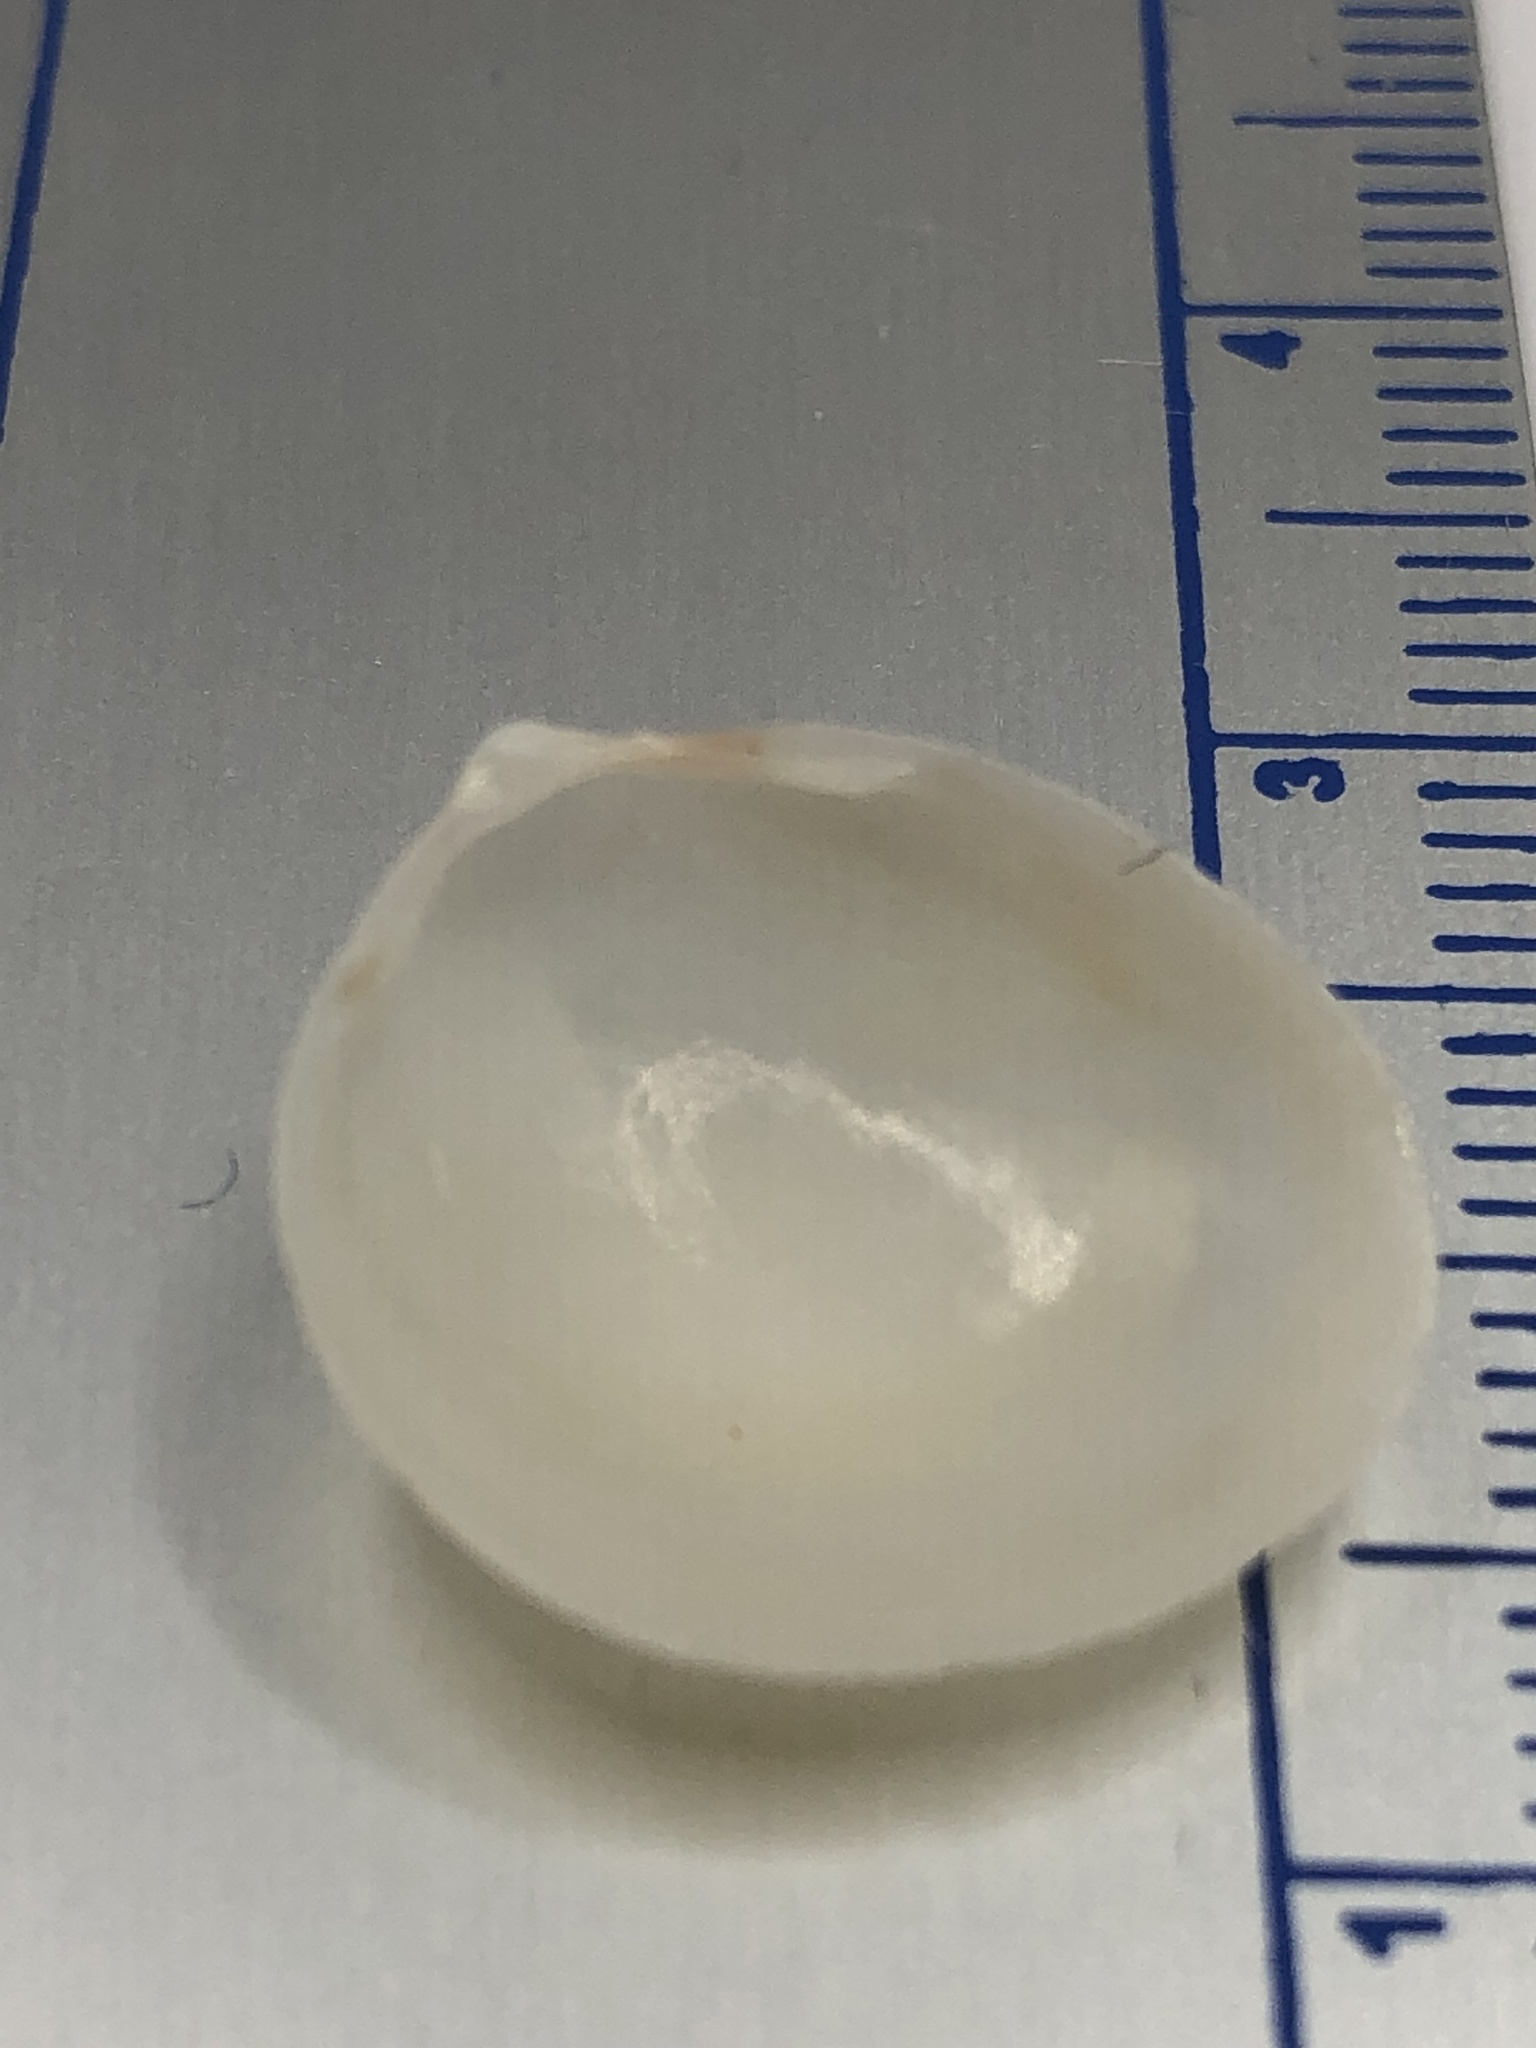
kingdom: Animalia
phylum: Mollusca
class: Bivalvia
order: Cardiida
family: Cardiidae
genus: Laevicardium
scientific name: Laevicardium serratum
